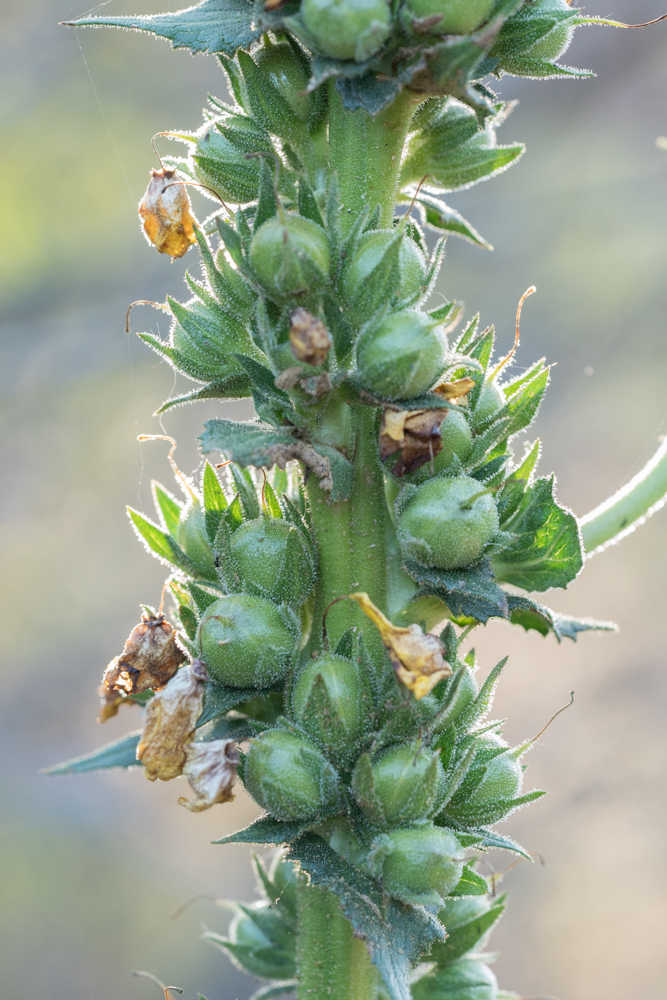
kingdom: Plantae
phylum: Tracheophyta
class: Magnoliopsida
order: Lamiales
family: Scrophulariaceae
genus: Verbascum
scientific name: Verbascum virgatum
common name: Twiggy mullein
